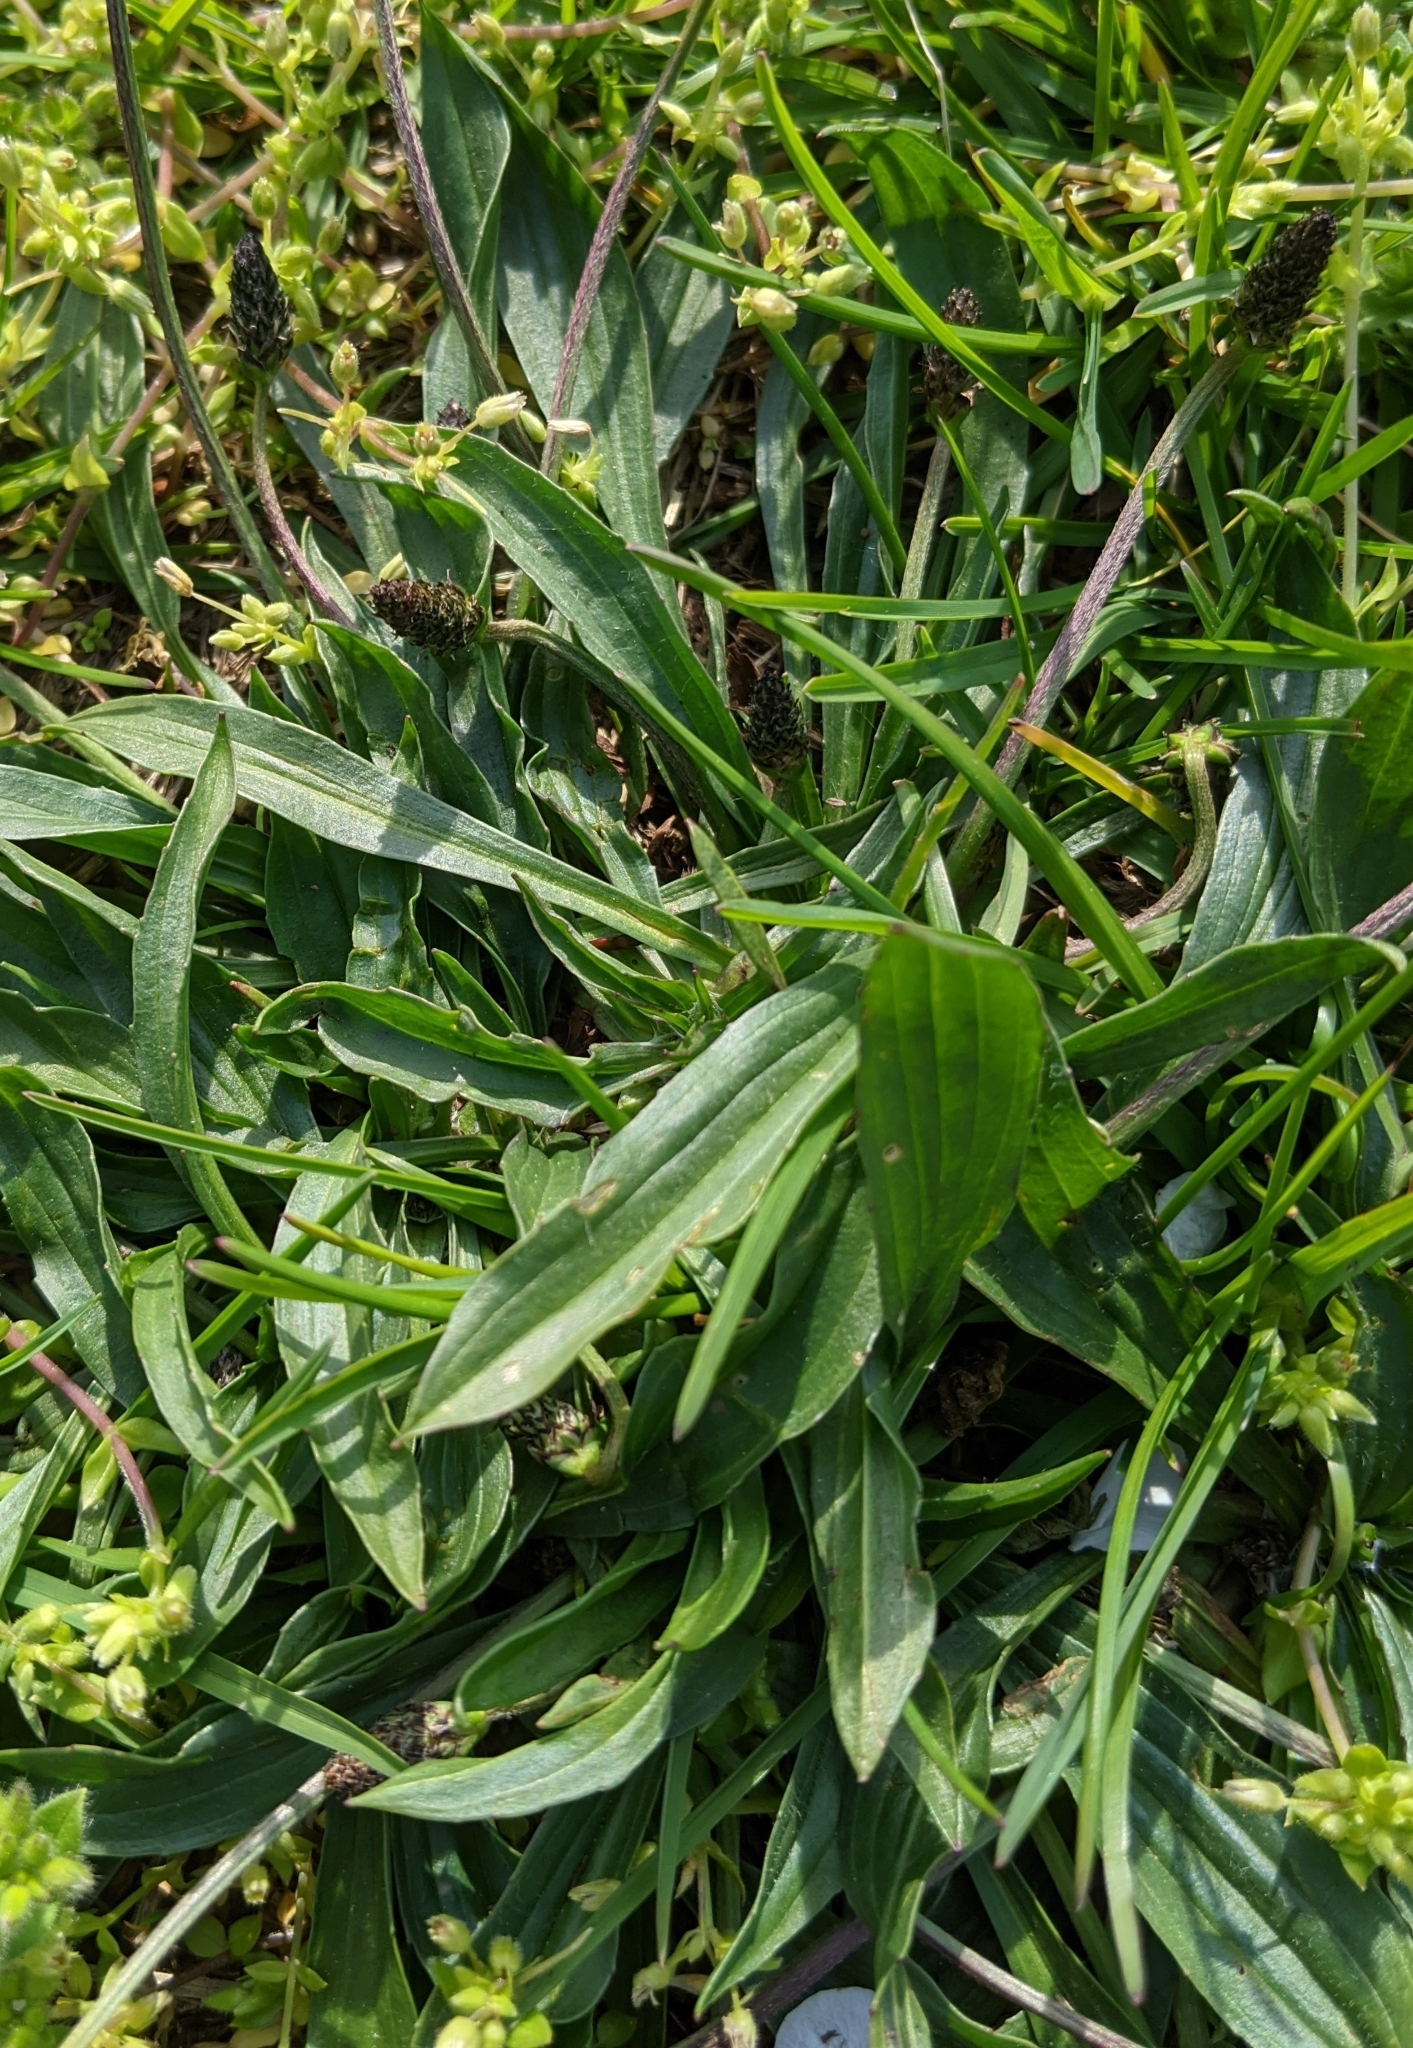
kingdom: Plantae
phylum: Tracheophyta
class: Magnoliopsida
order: Lamiales
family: Plantaginaceae
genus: Plantago
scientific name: Plantago lanceolata
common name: Ribwort plantain
